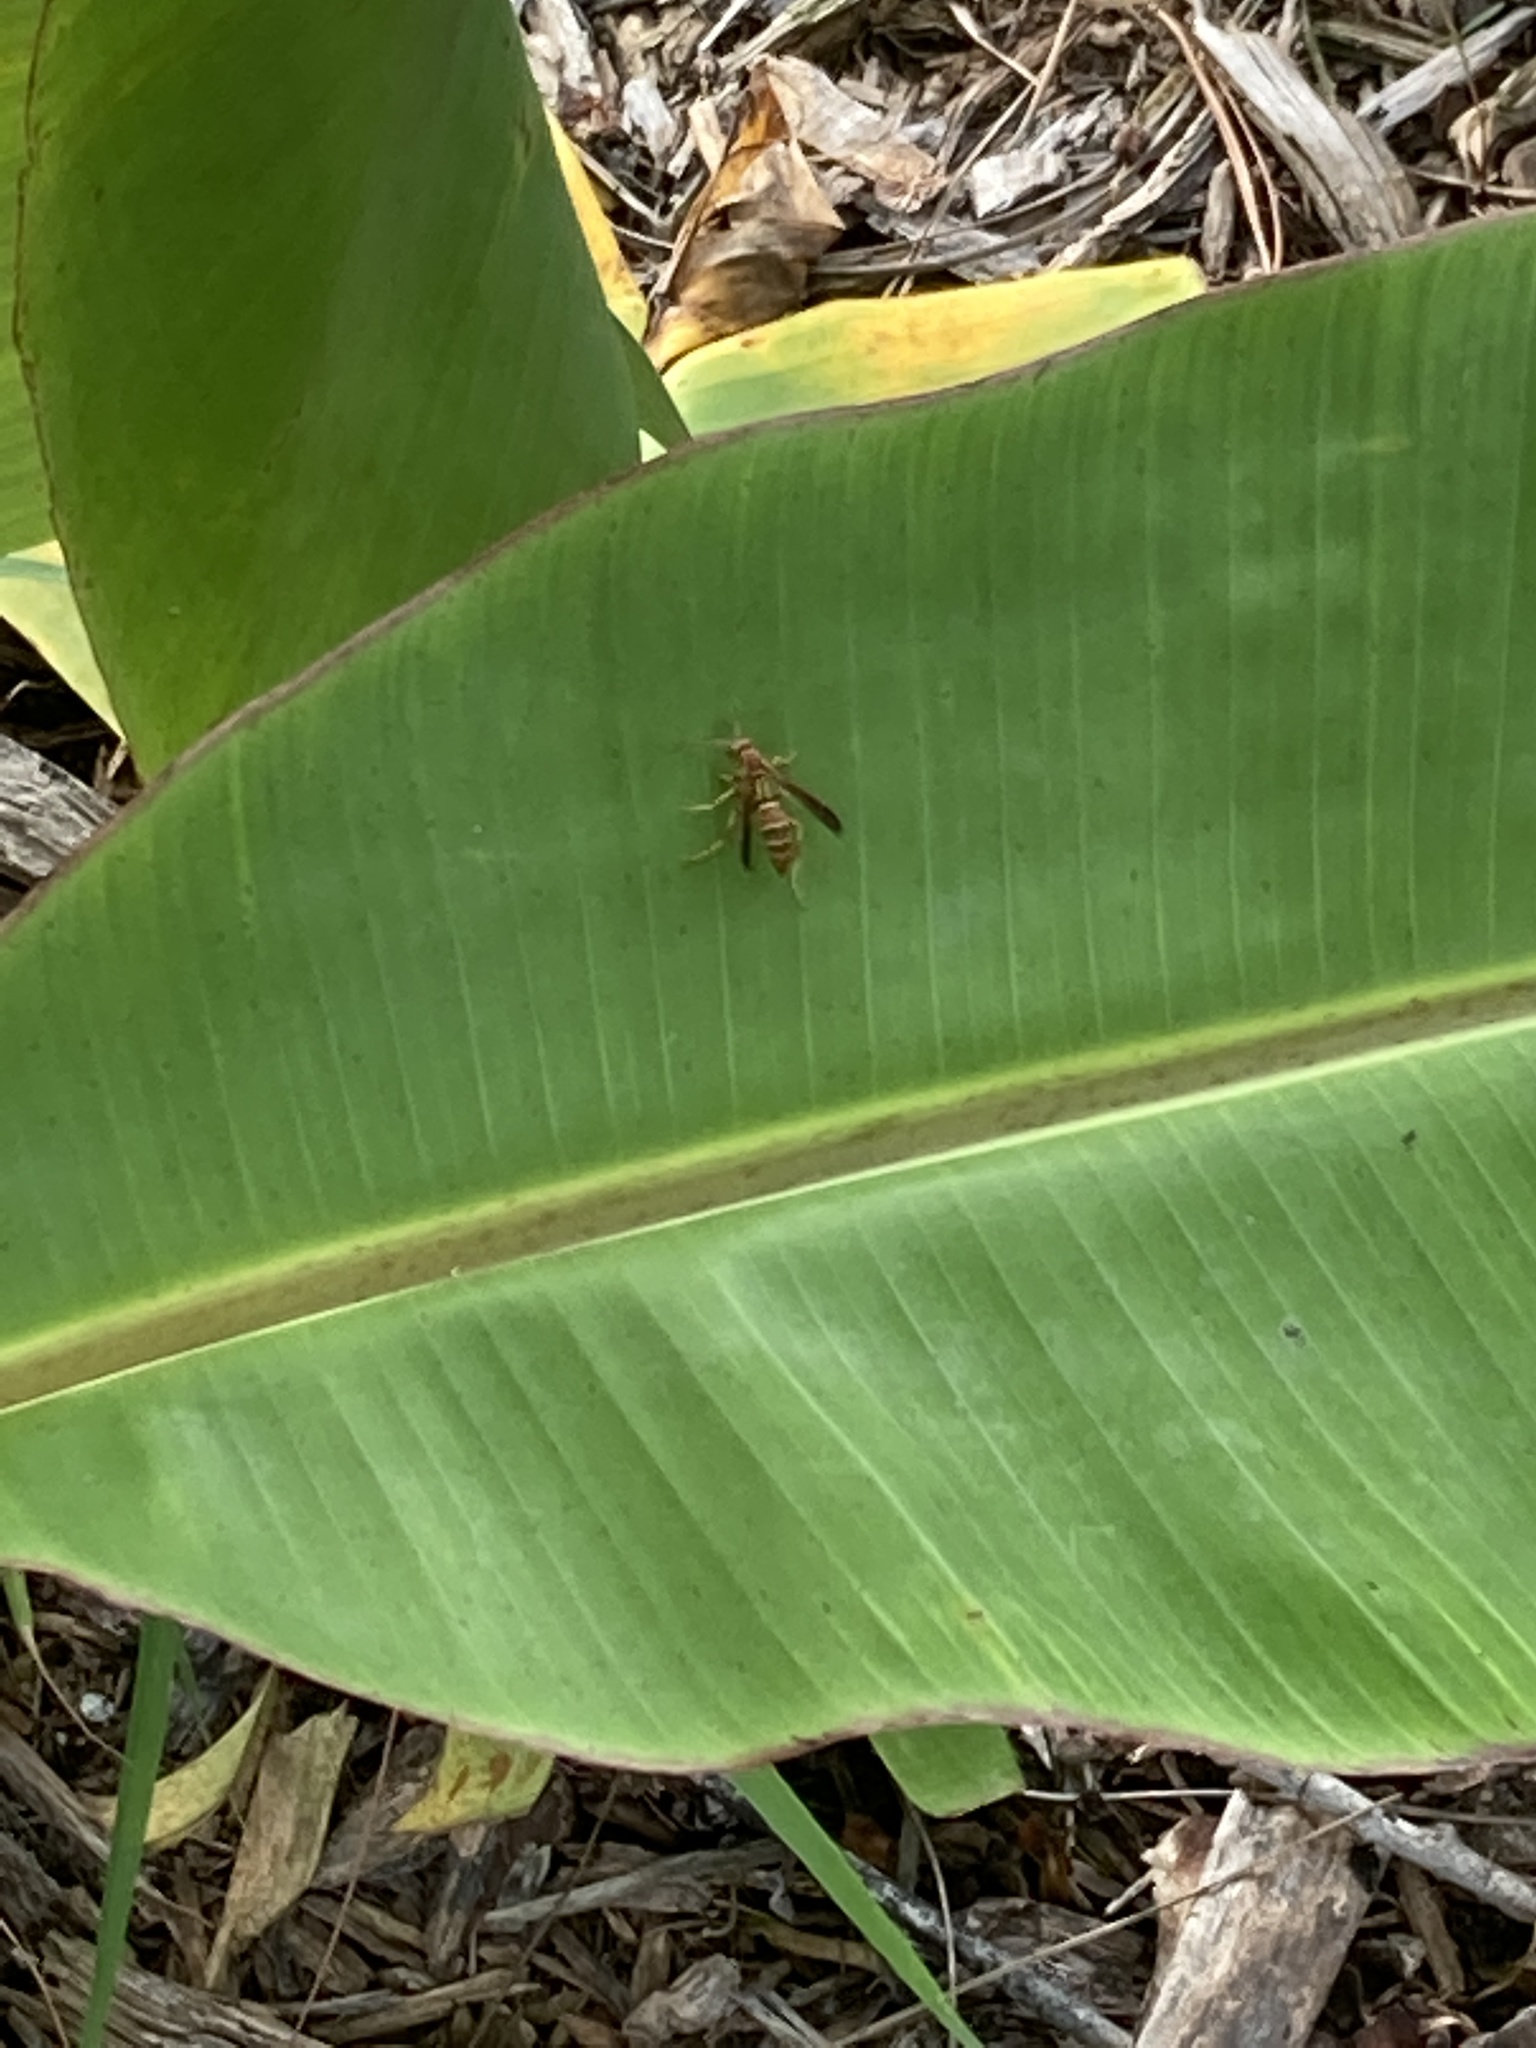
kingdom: Animalia
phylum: Arthropoda
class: Insecta
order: Hymenoptera
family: Eumenidae
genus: Polistes
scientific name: Polistes dorsalis
